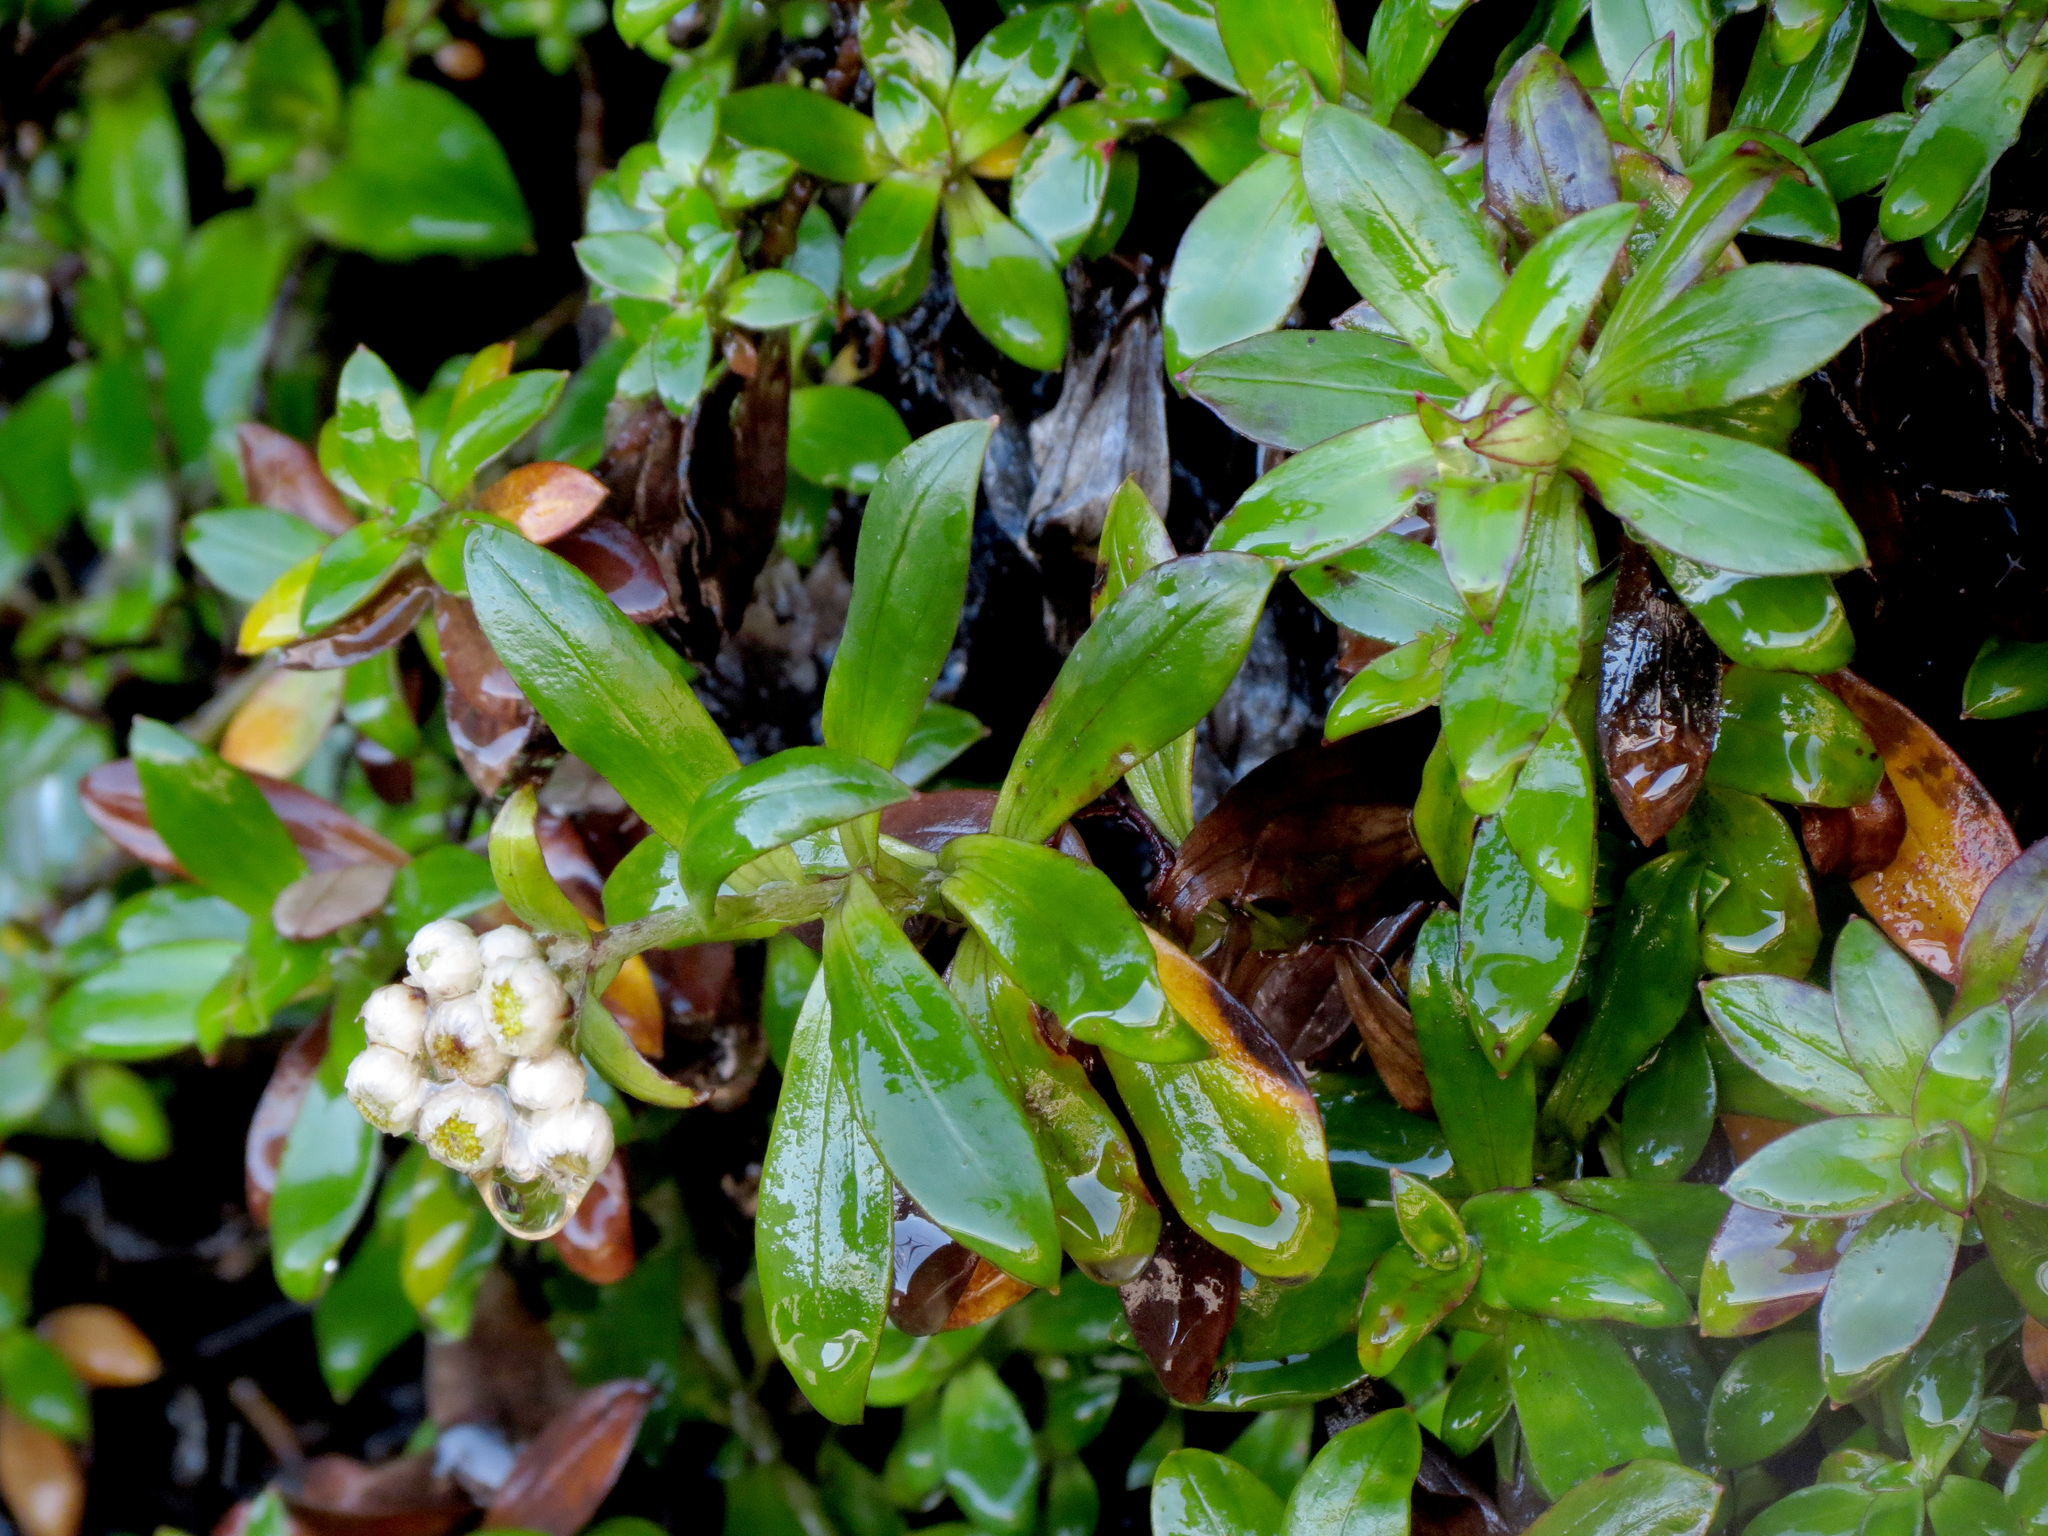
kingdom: Plantae
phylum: Tracheophyta
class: Magnoliopsida
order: Asterales
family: Asteraceae
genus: Anaphalioides
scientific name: Anaphalioides trinervis
